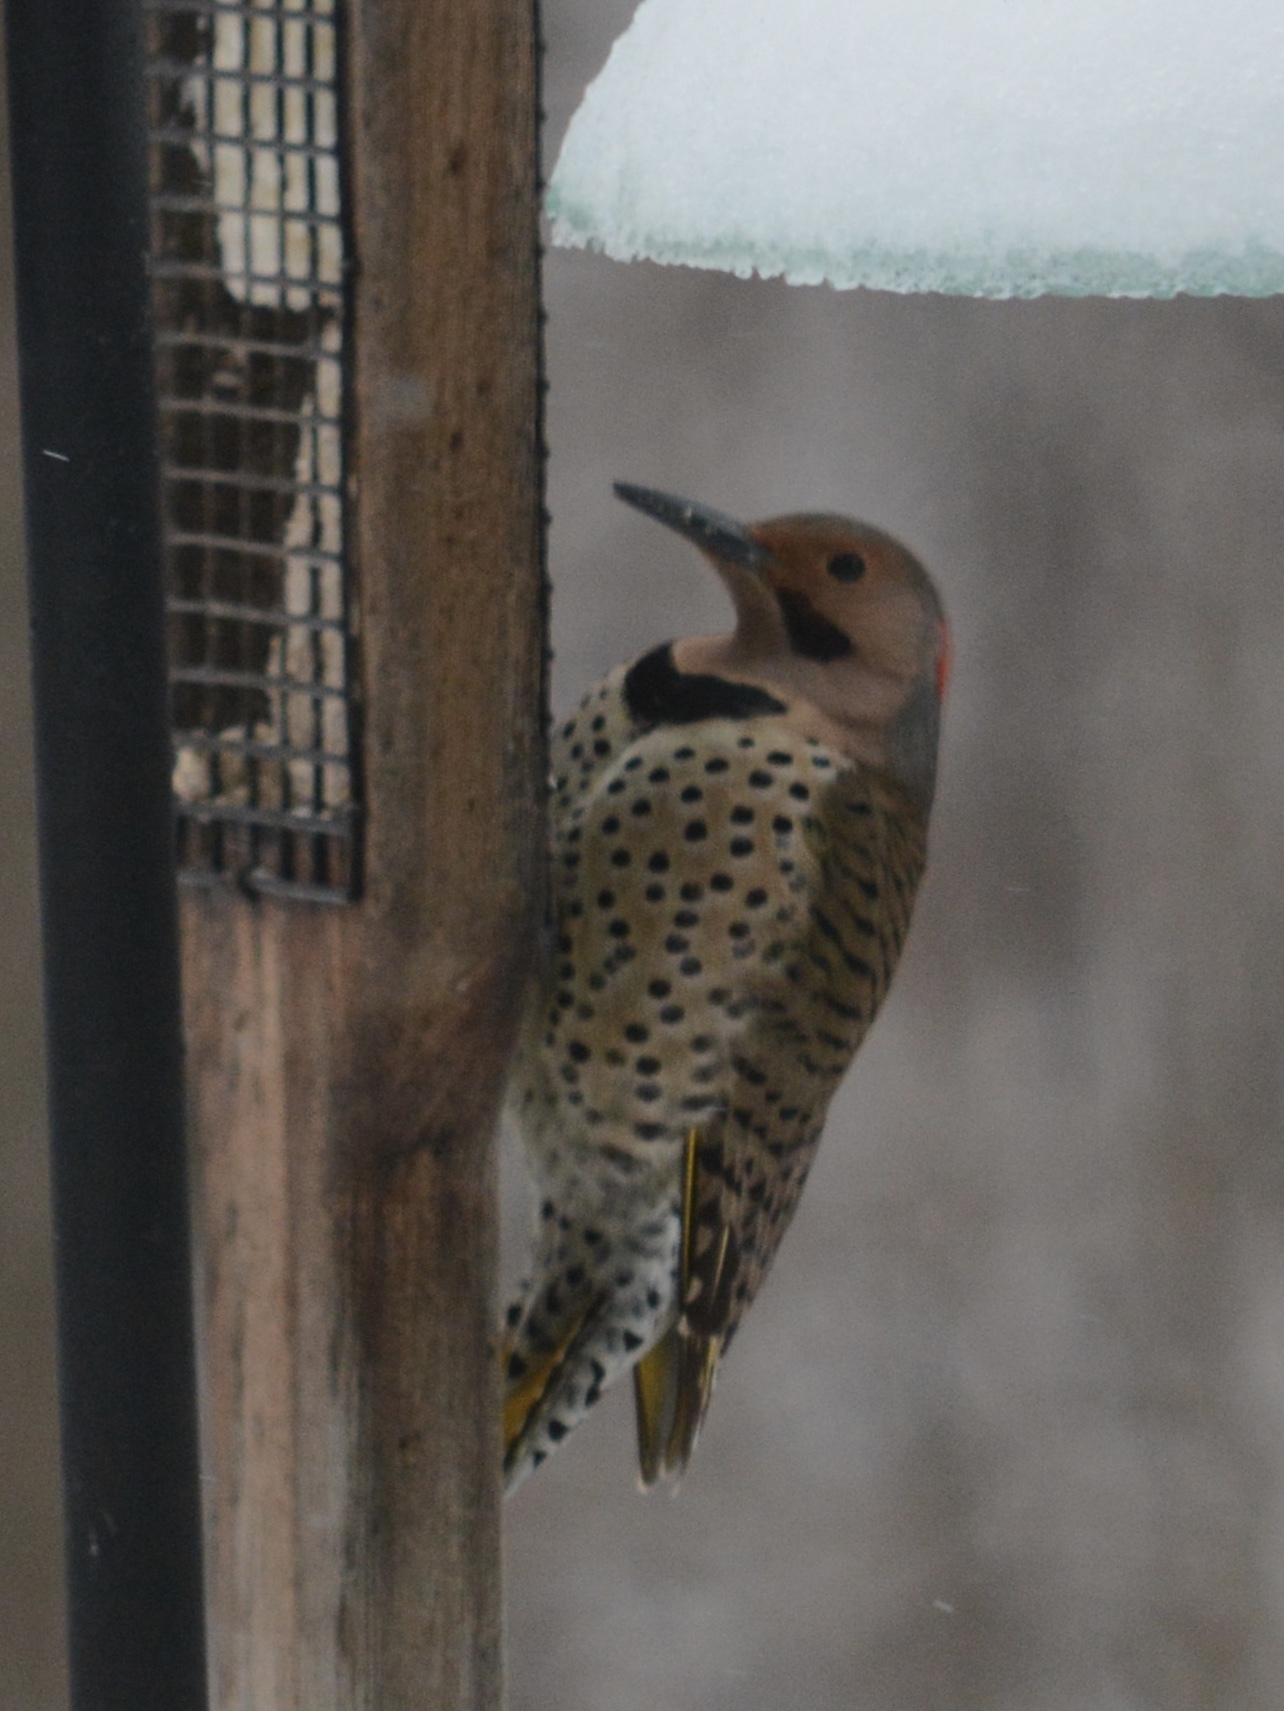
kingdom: Animalia
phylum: Chordata
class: Aves
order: Piciformes
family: Picidae
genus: Colaptes
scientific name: Colaptes auratus
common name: Northern flicker
